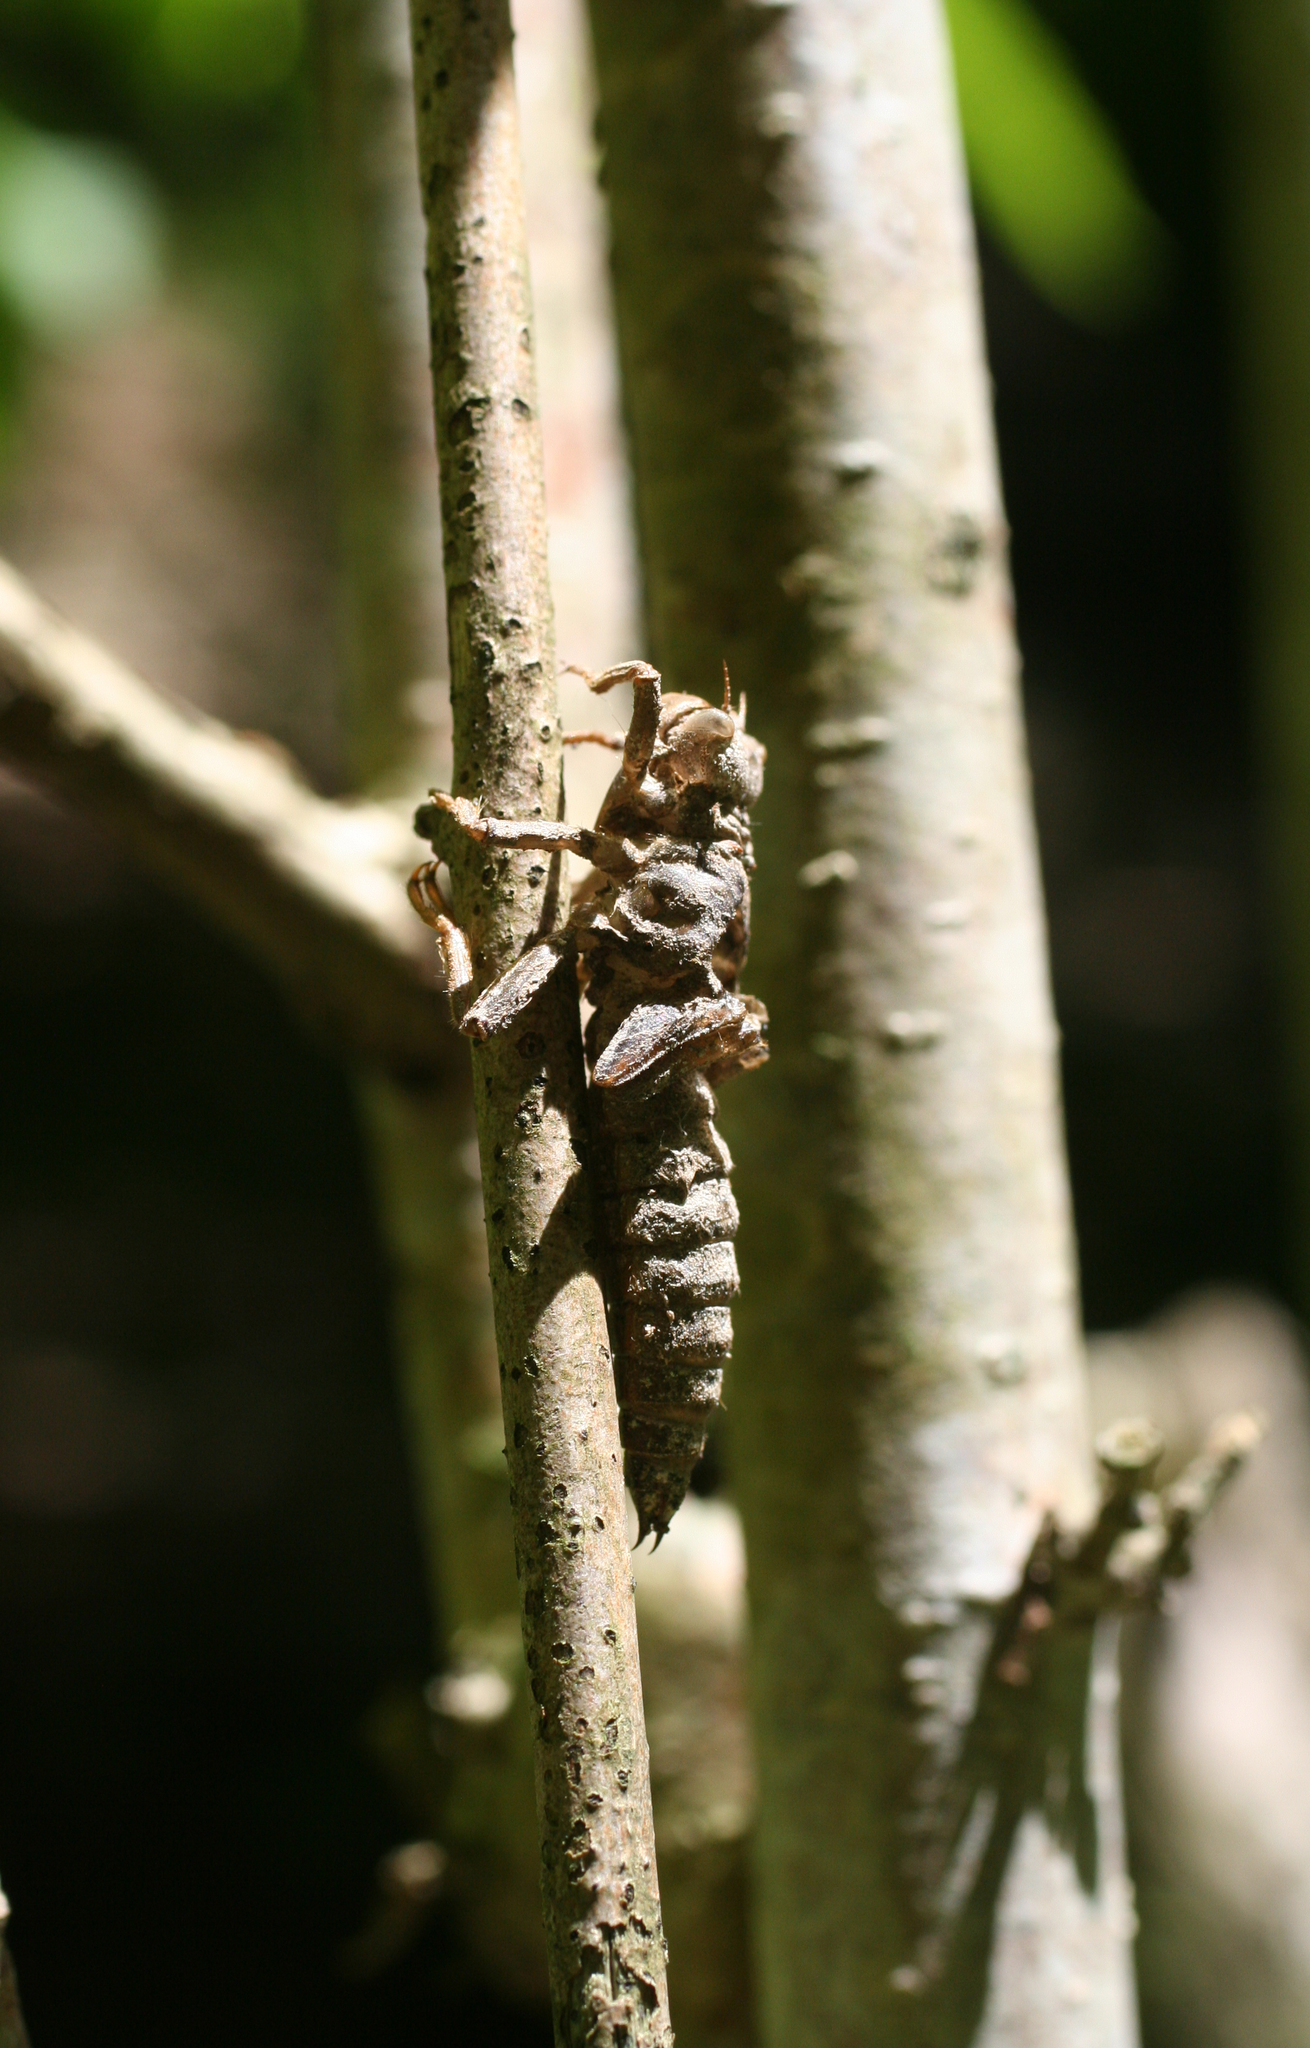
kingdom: Animalia
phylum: Arthropoda
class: Insecta
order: Odonata
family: Cordulegastridae
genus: Cordulegaster
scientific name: Cordulegaster charpentieri
